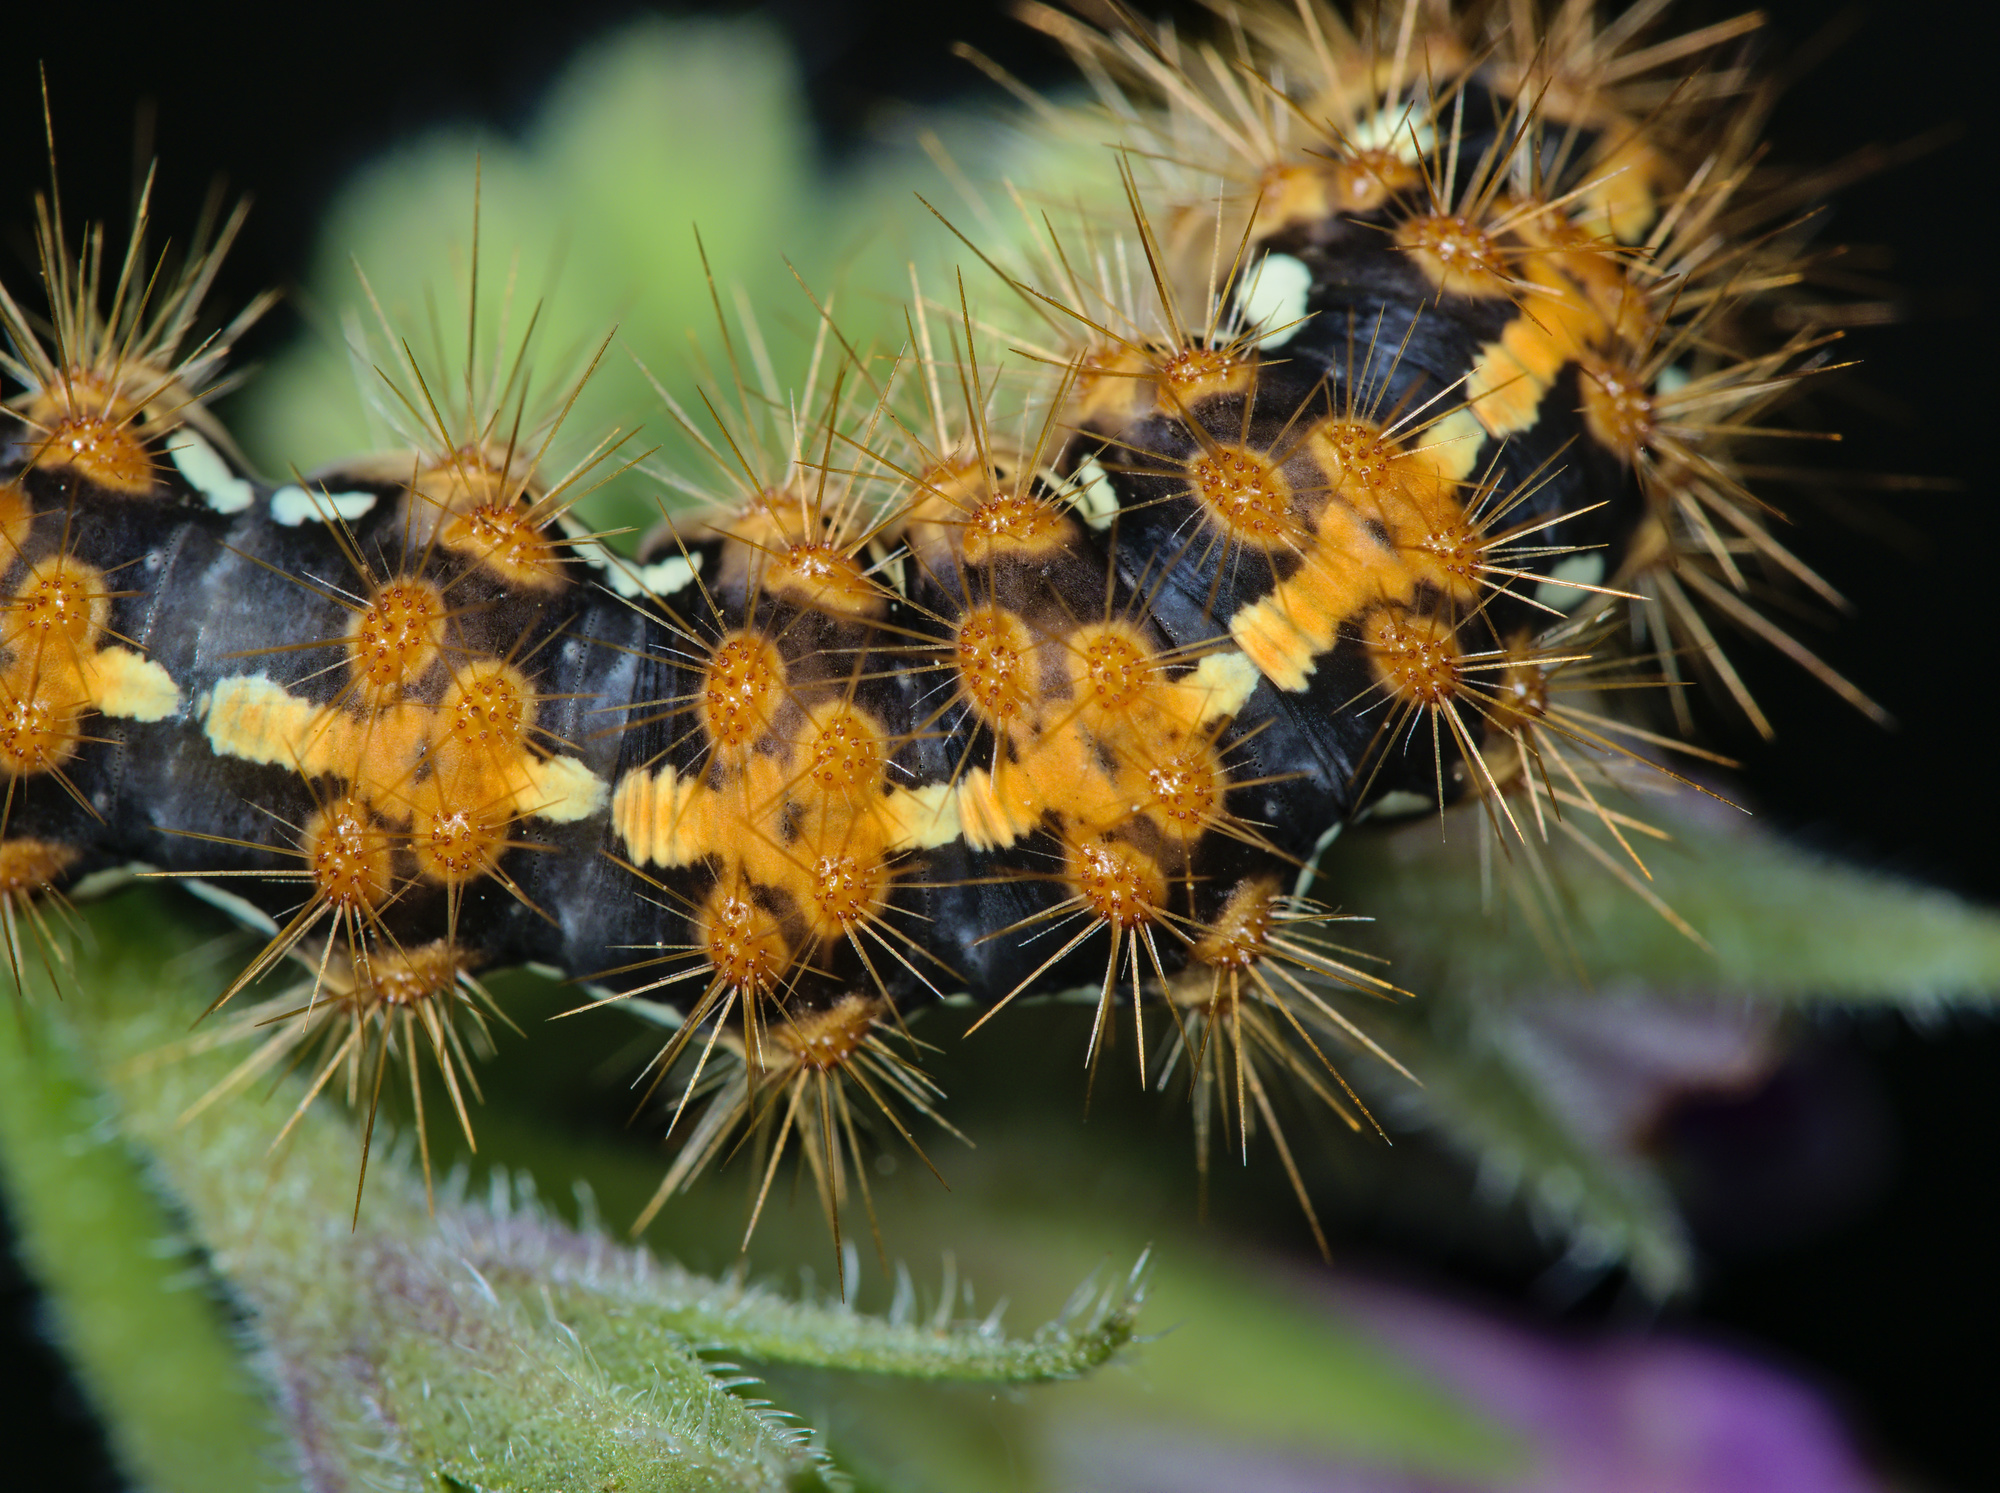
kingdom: Animalia
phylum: Arthropoda
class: Insecta
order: Lepidoptera
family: Erebidae
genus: Euplagia
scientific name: Euplagia quadripunctaria
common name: Jersey tiger
